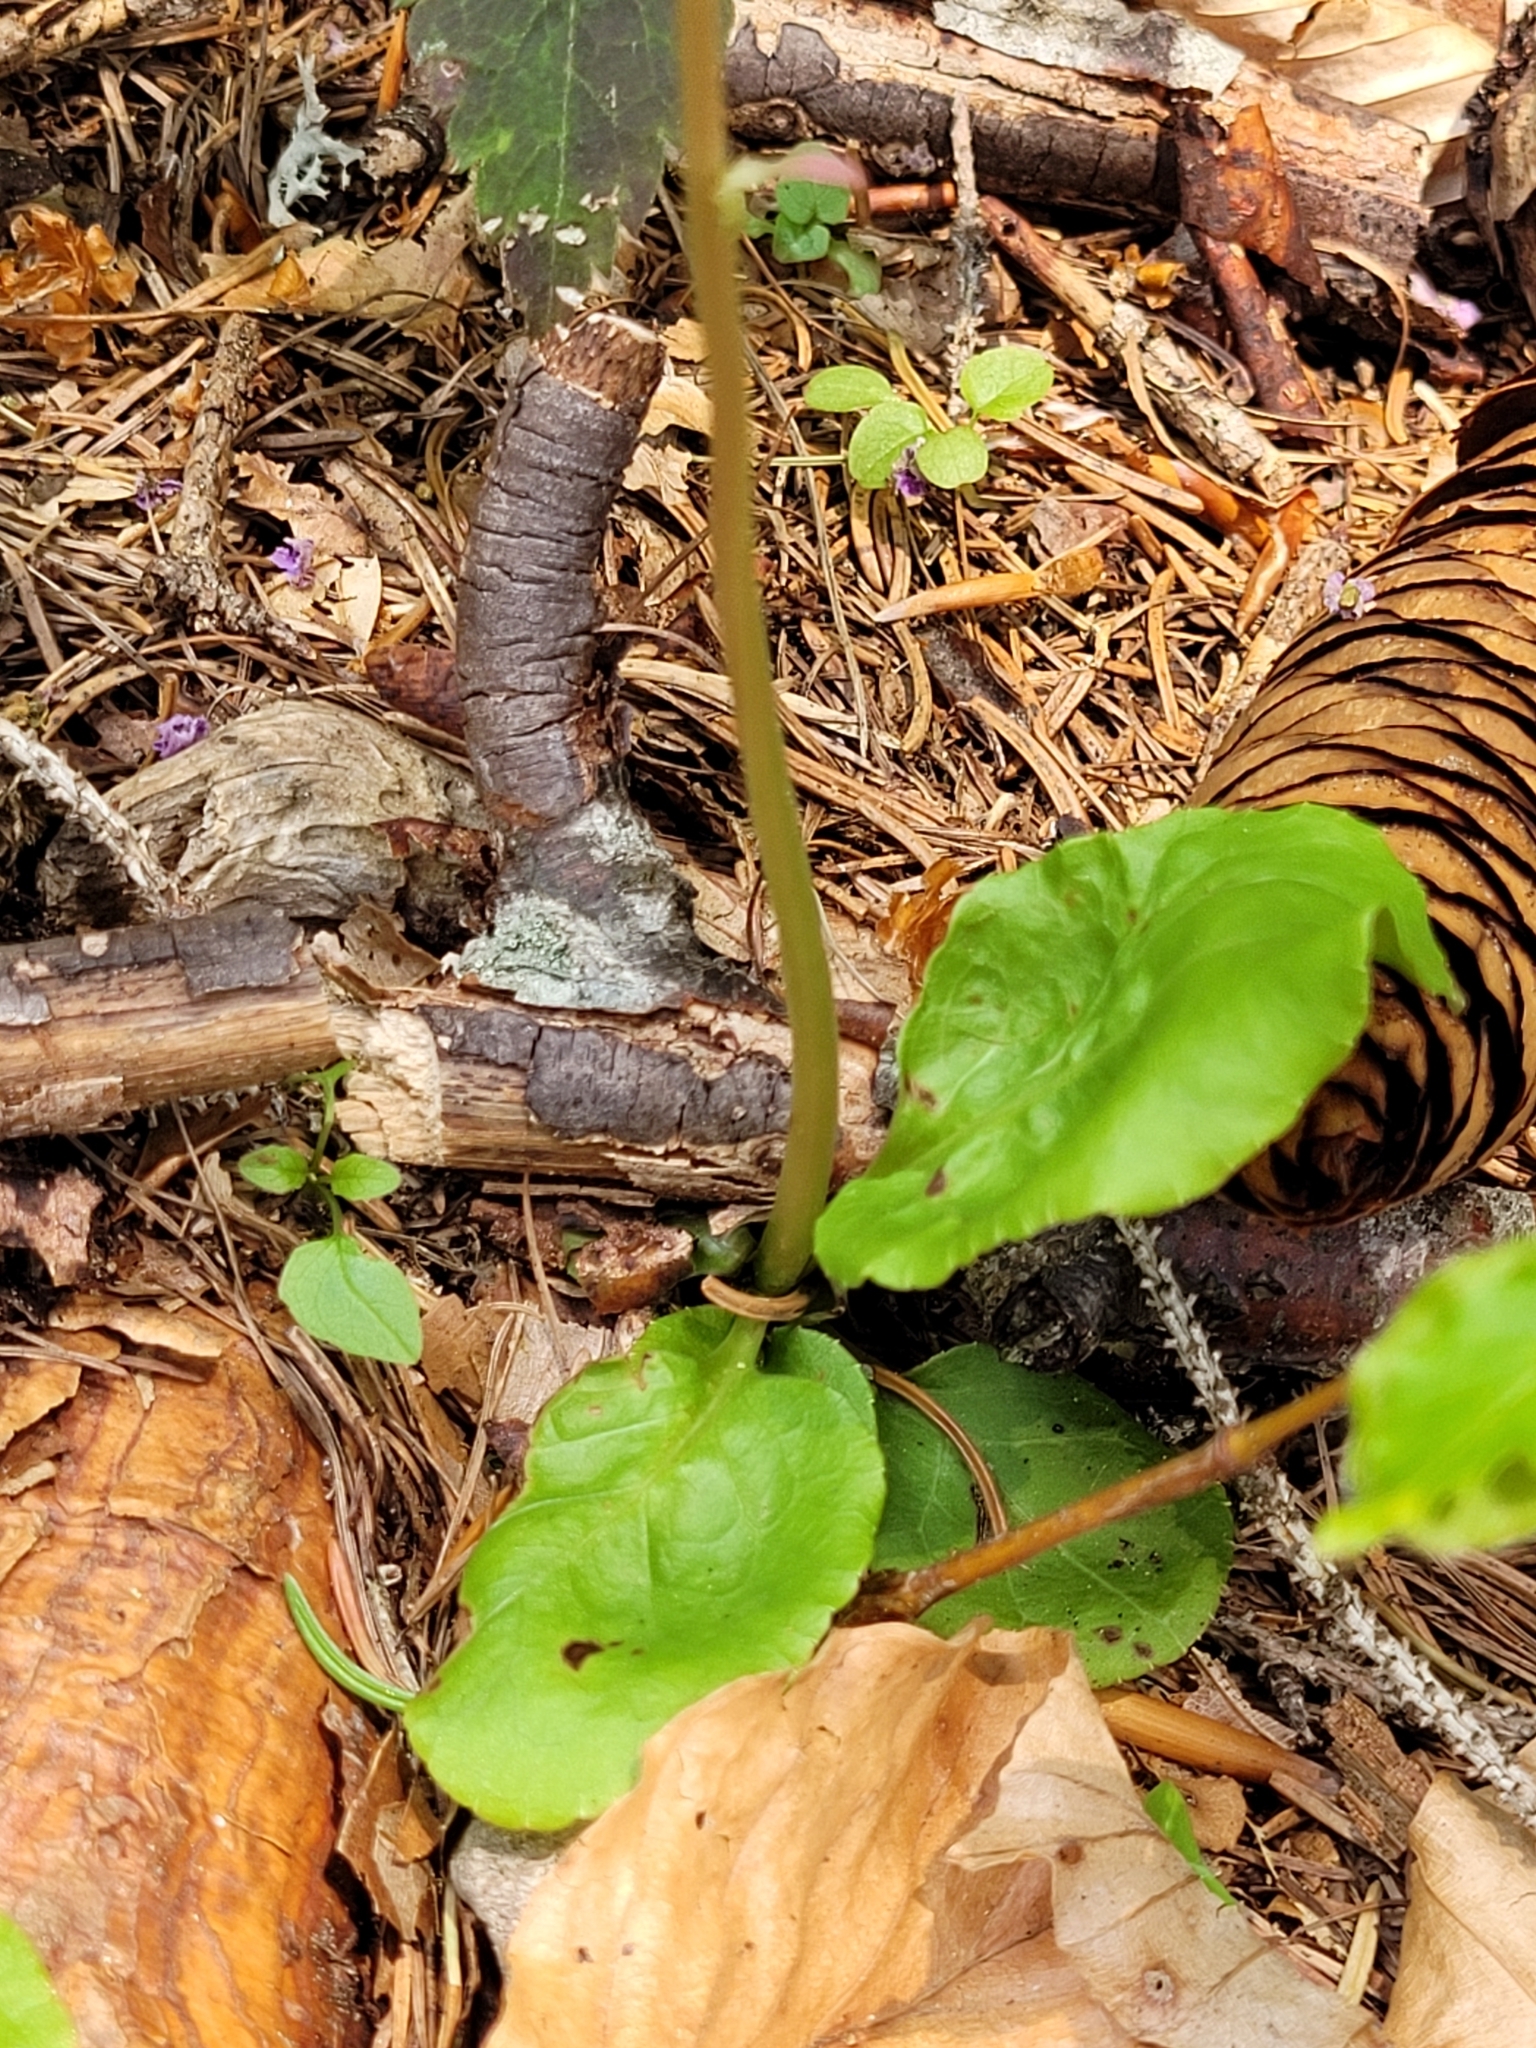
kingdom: Plantae
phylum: Tracheophyta
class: Magnoliopsida
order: Ericales
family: Ericaceae
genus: Pyrola
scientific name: Pyrola minor
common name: Common wintergreen
